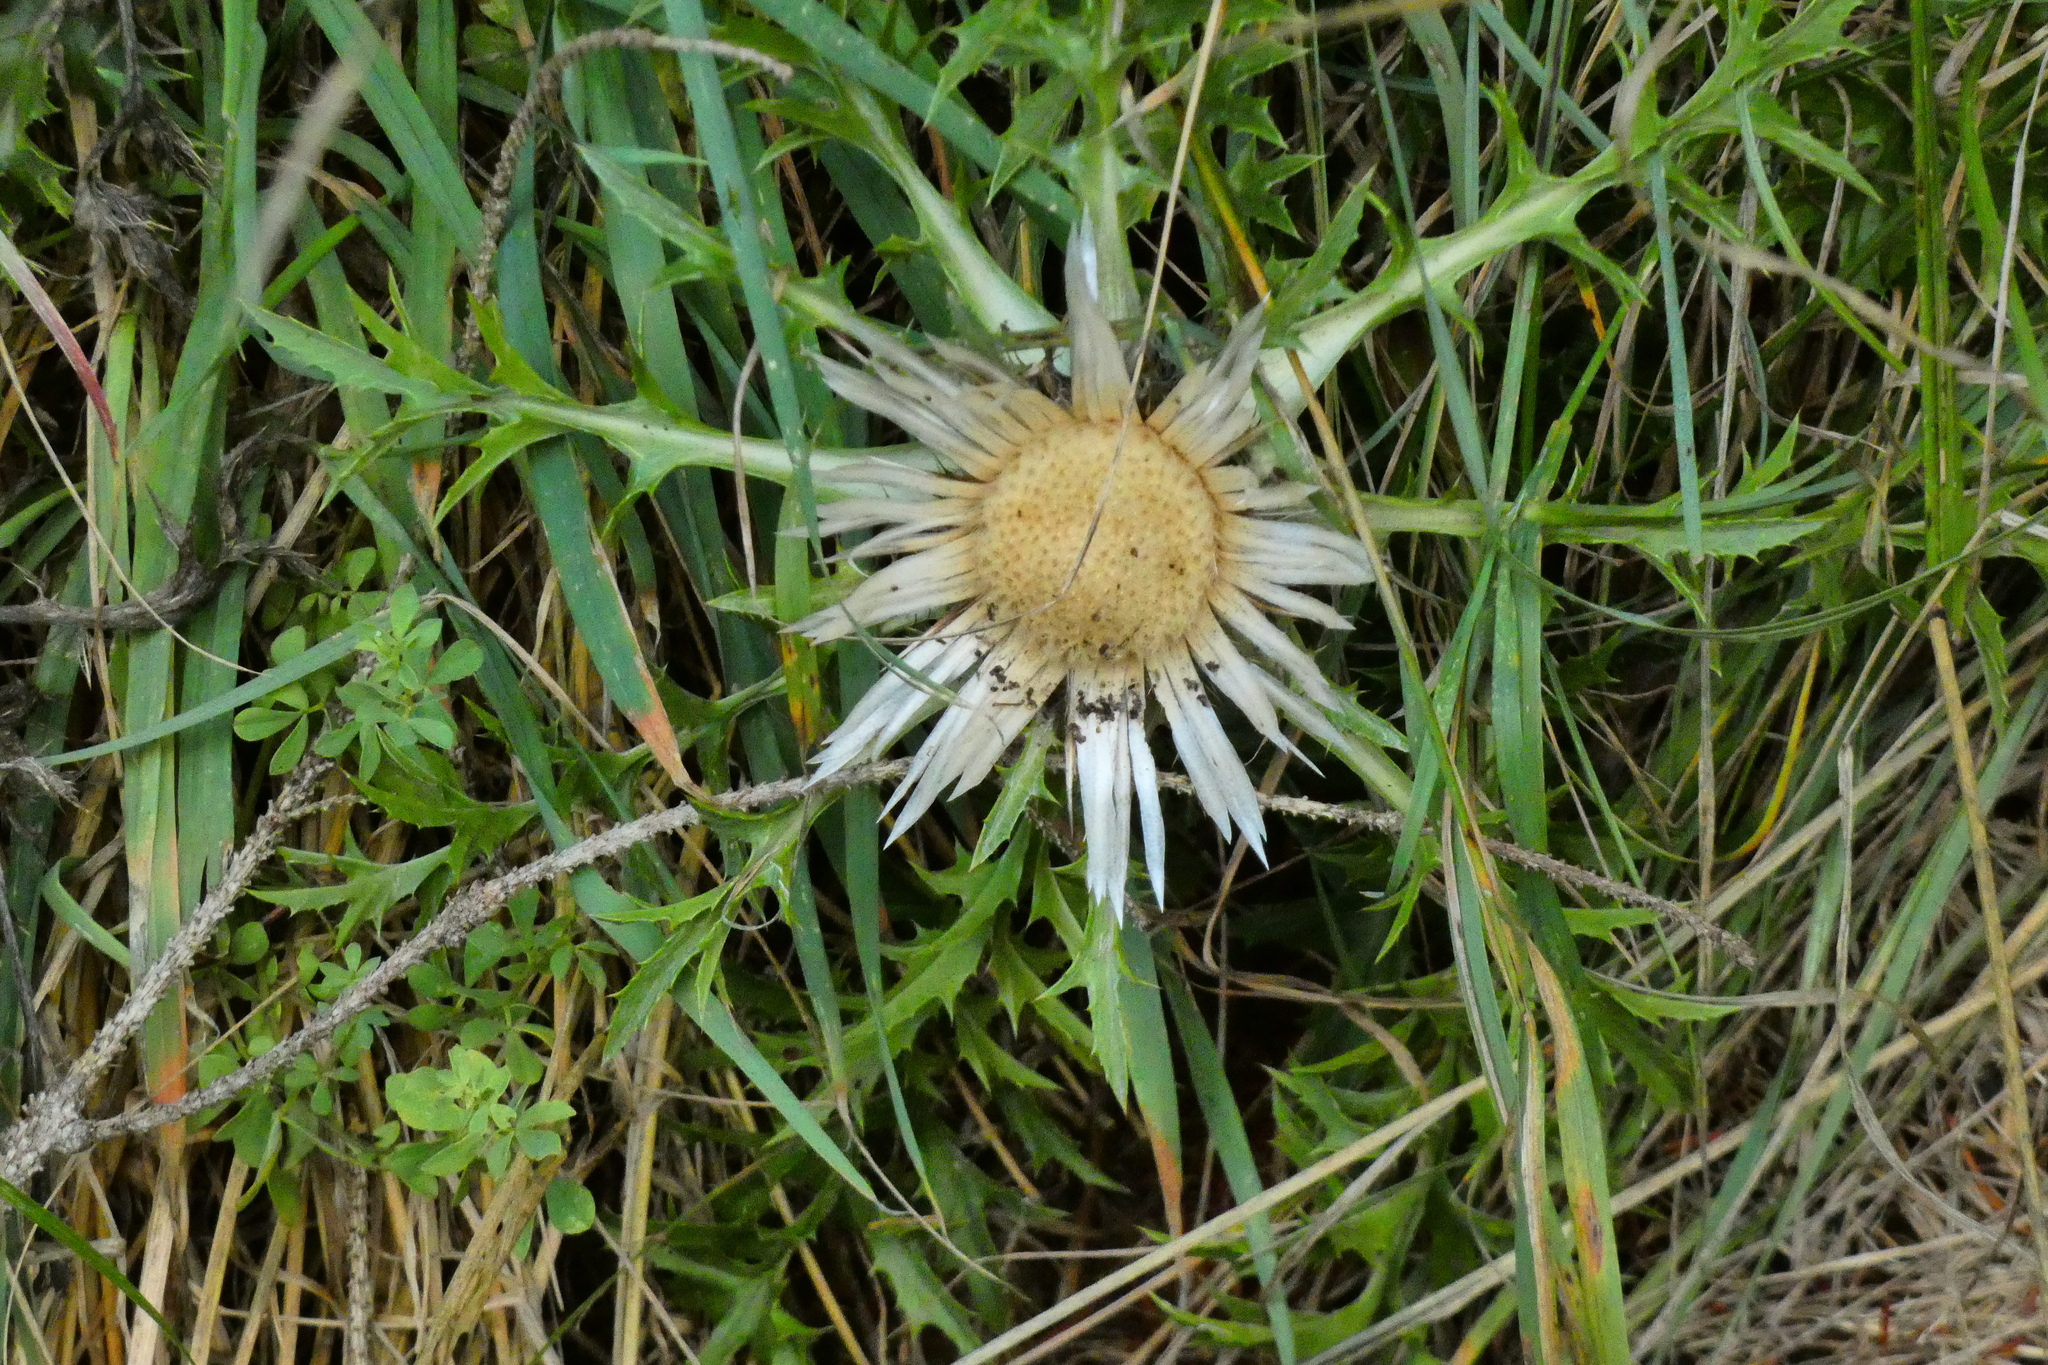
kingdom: Plantae
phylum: Tracheophyta
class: Magnoliopsida
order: Asterales
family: Asteraceae
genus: Carlina
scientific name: Carlina acaulis
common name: Stemless carline thistle
